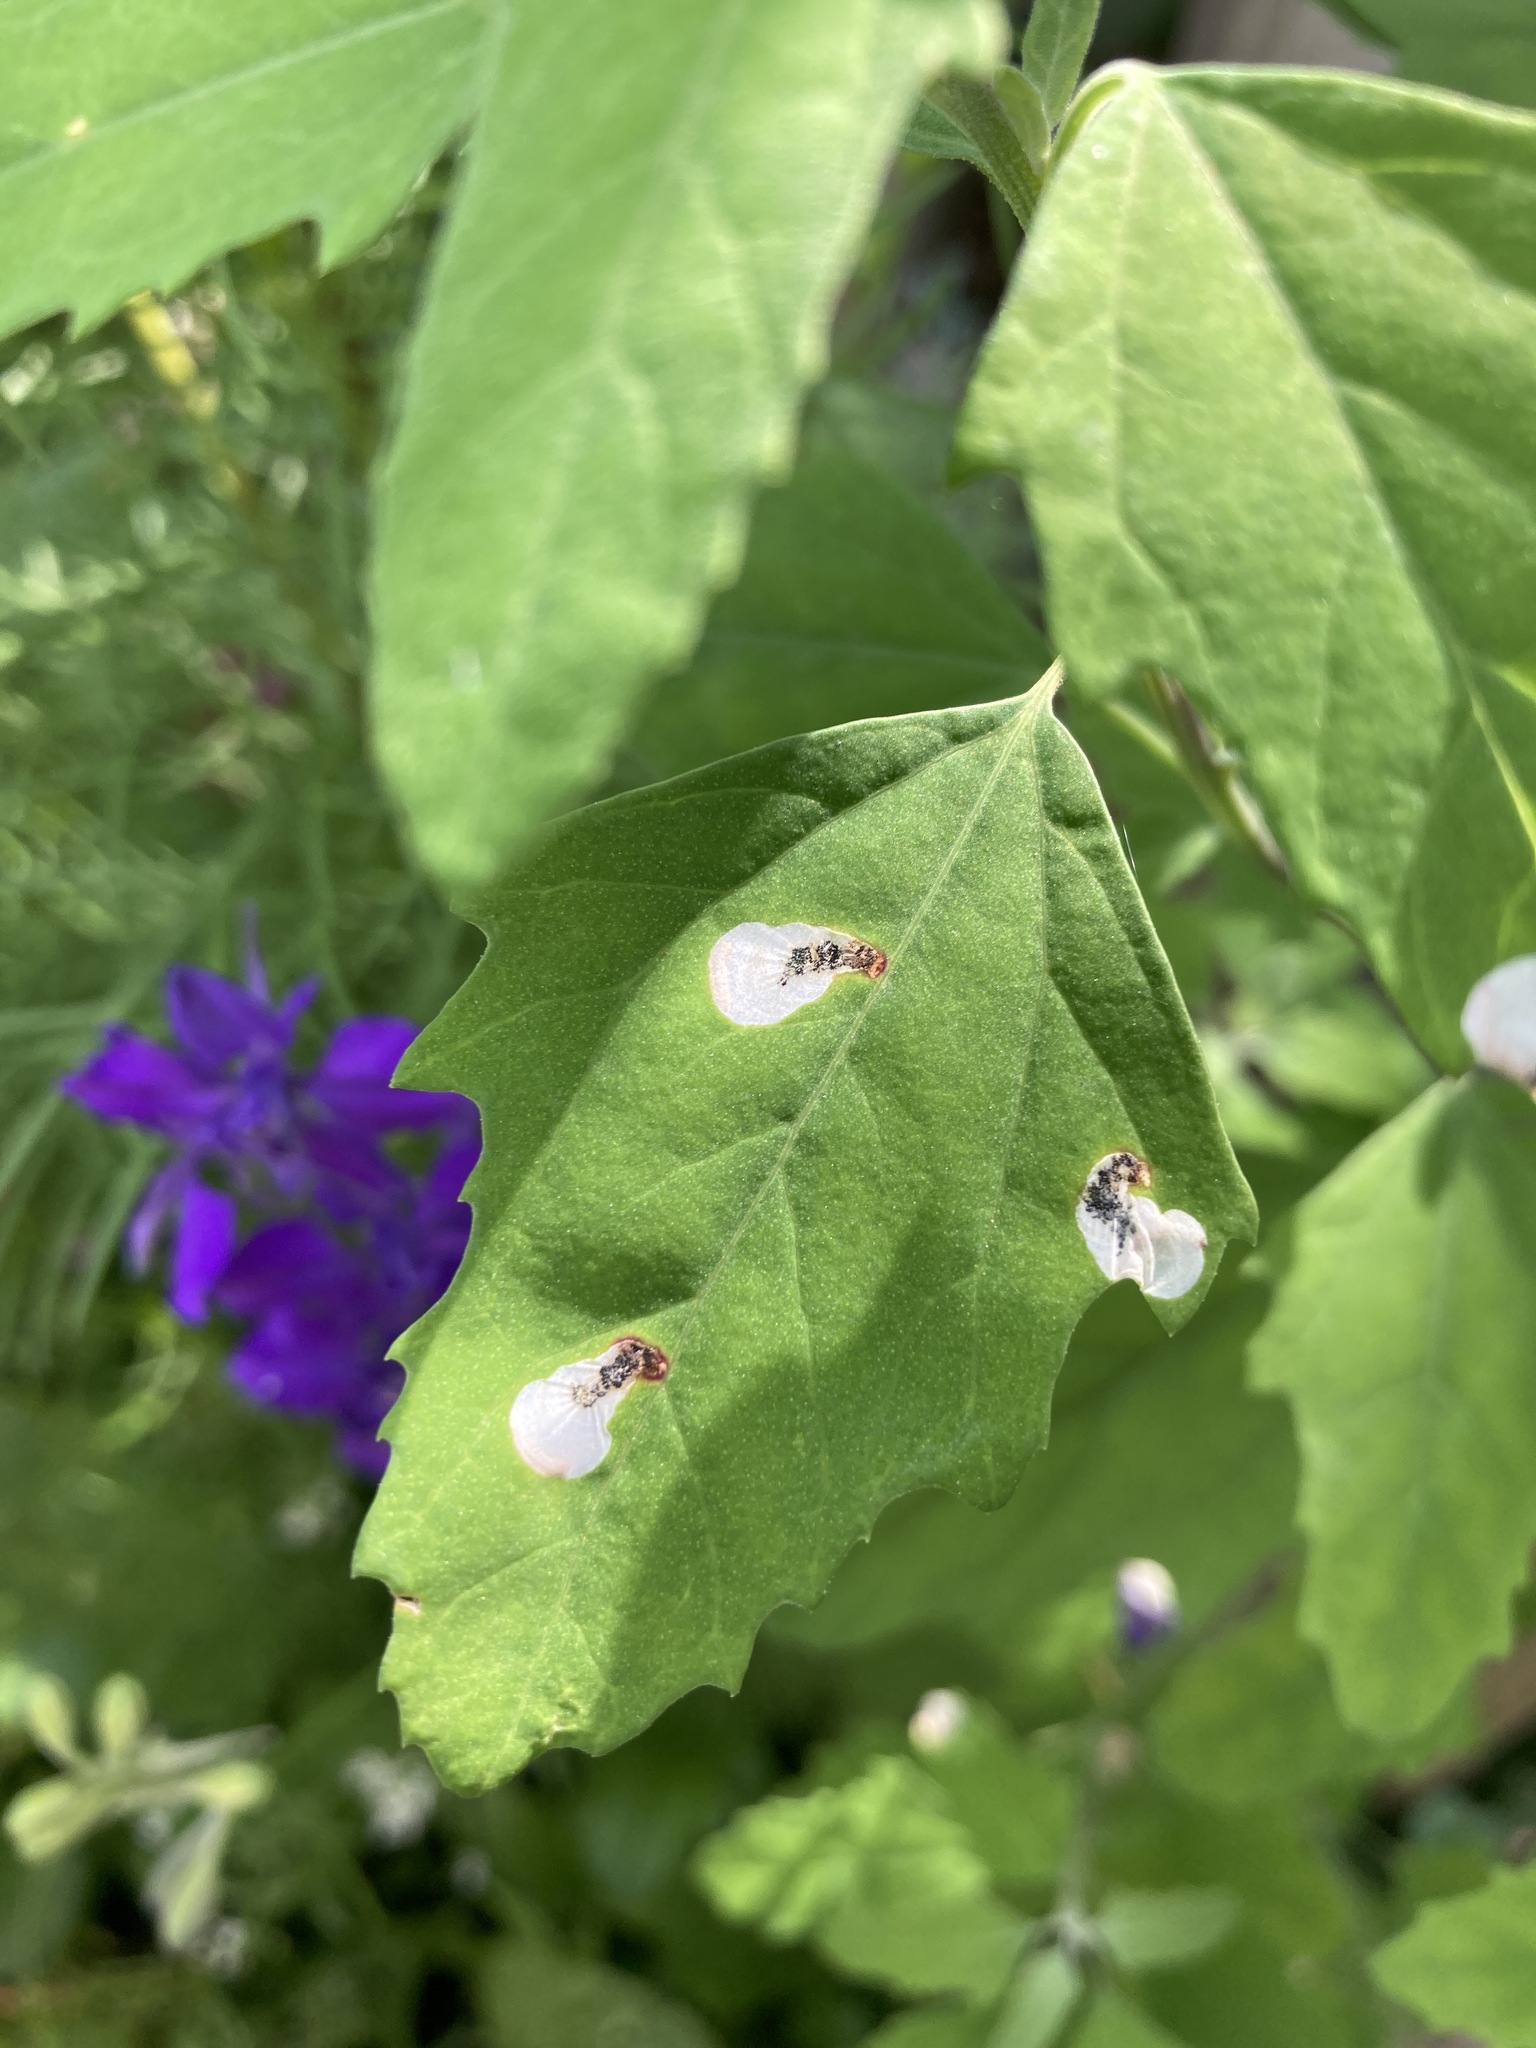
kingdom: Animalia
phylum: Arthropoda
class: Insecta
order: Lepidoptera
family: Gelechiidae
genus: Chrysoesthia
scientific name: Chrysoesthia sexguttella
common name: Moth
